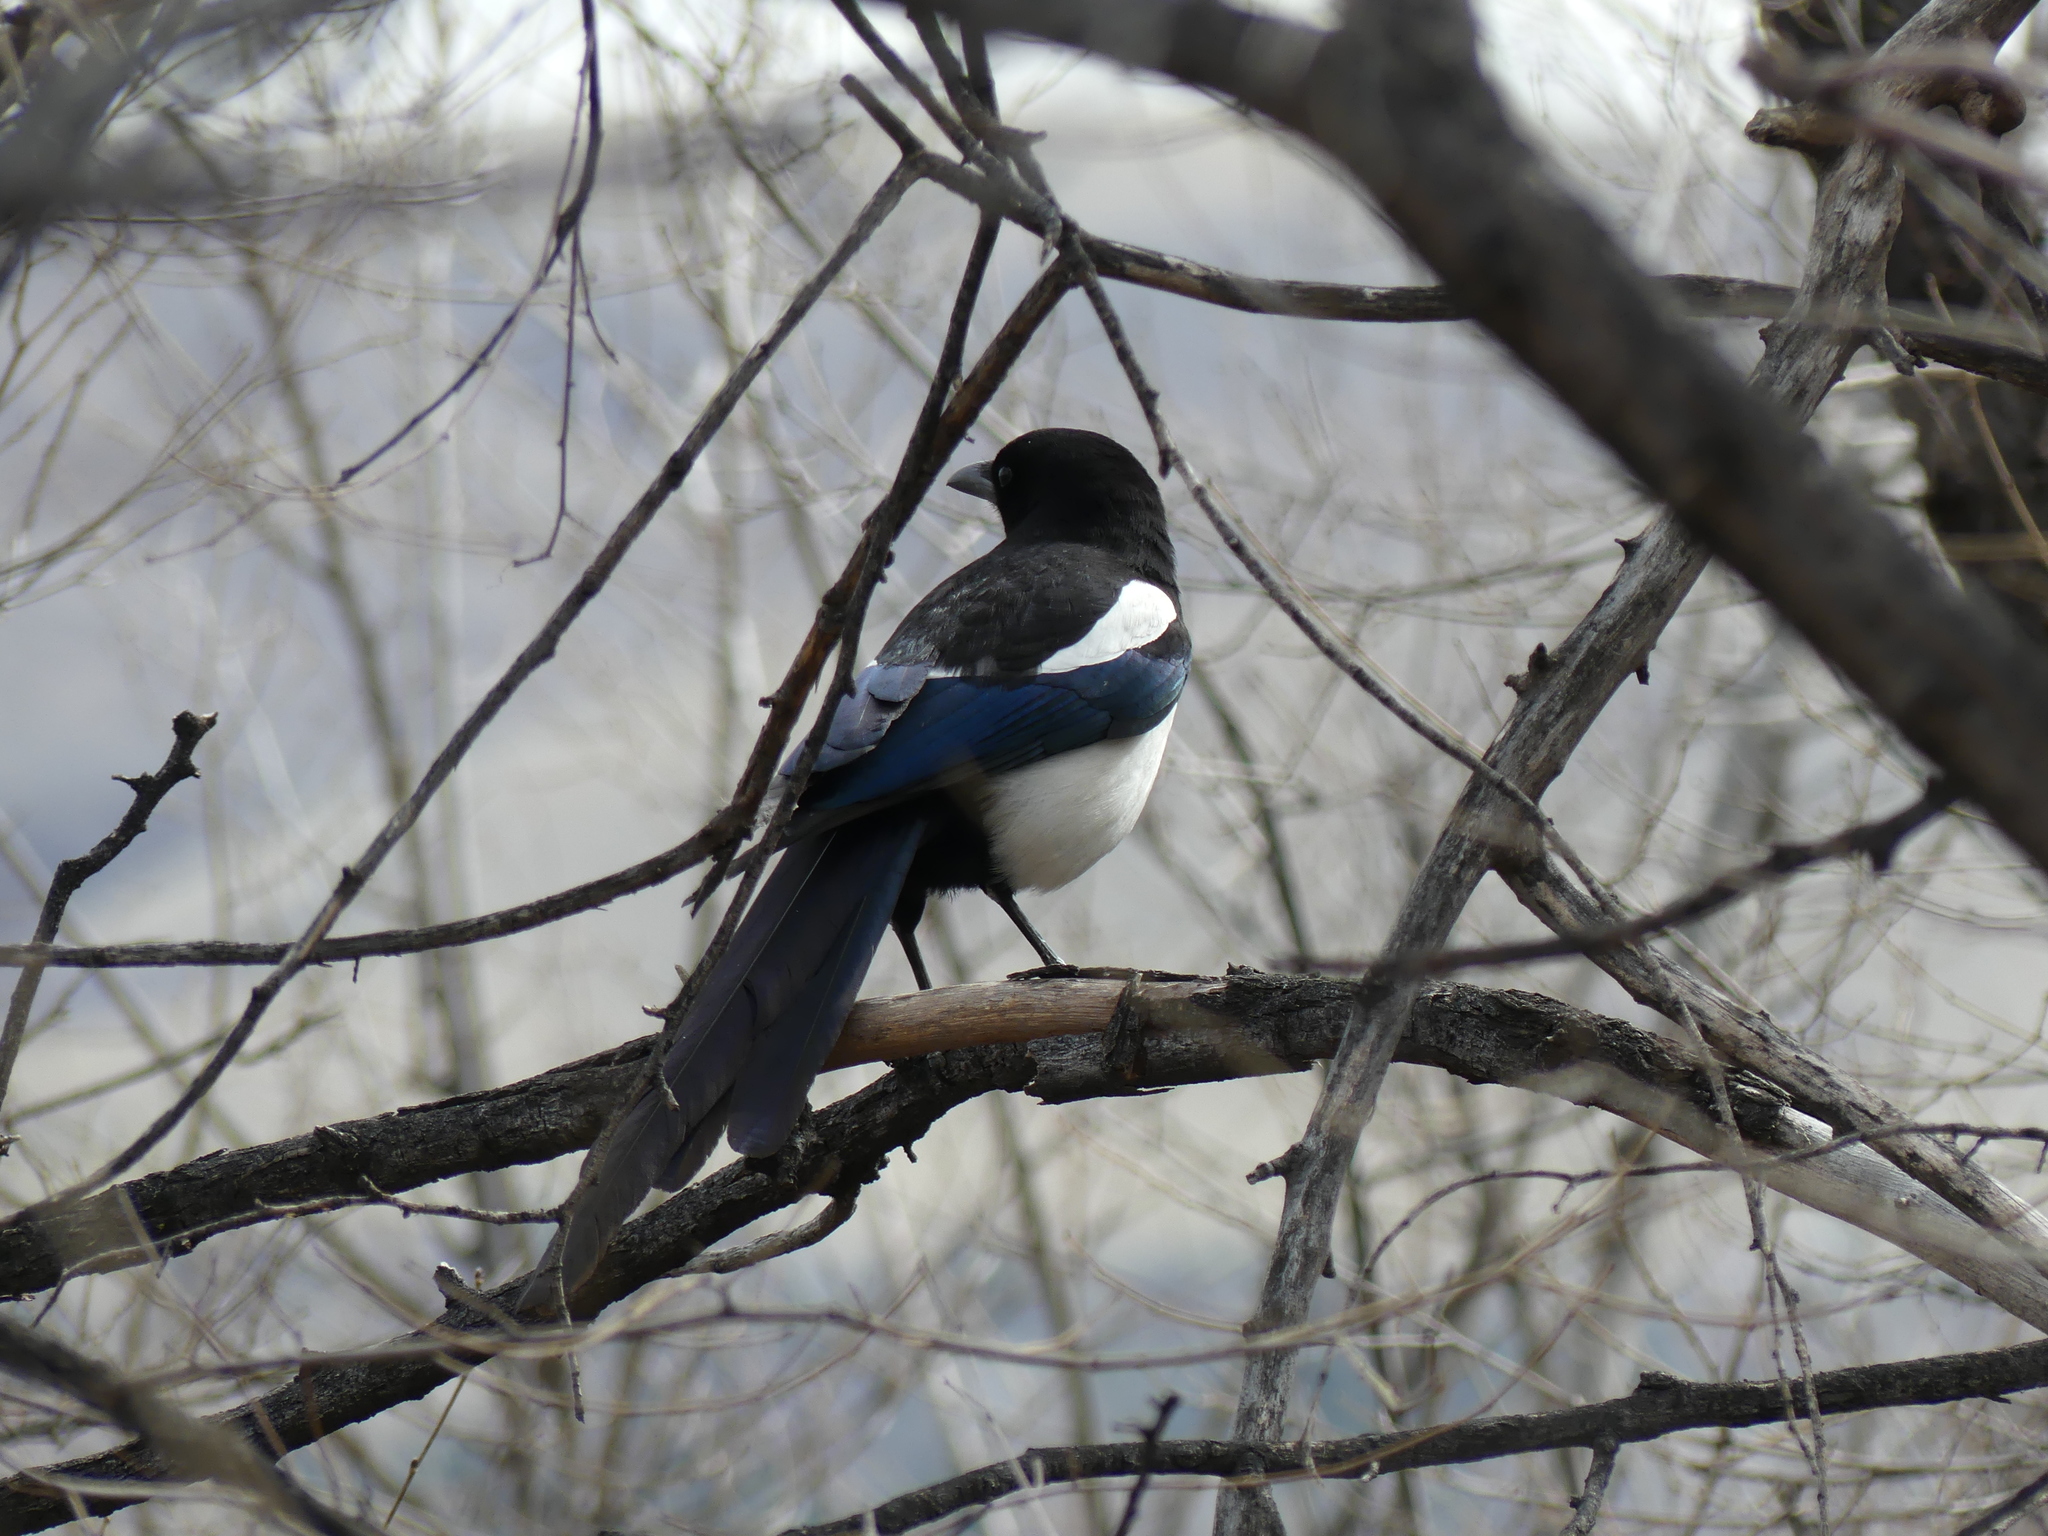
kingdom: Animalia
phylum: Chordata
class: Aves
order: Passeriformes
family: Corvidae
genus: Pica
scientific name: Pica hudsonia
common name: Black-billed magpie
